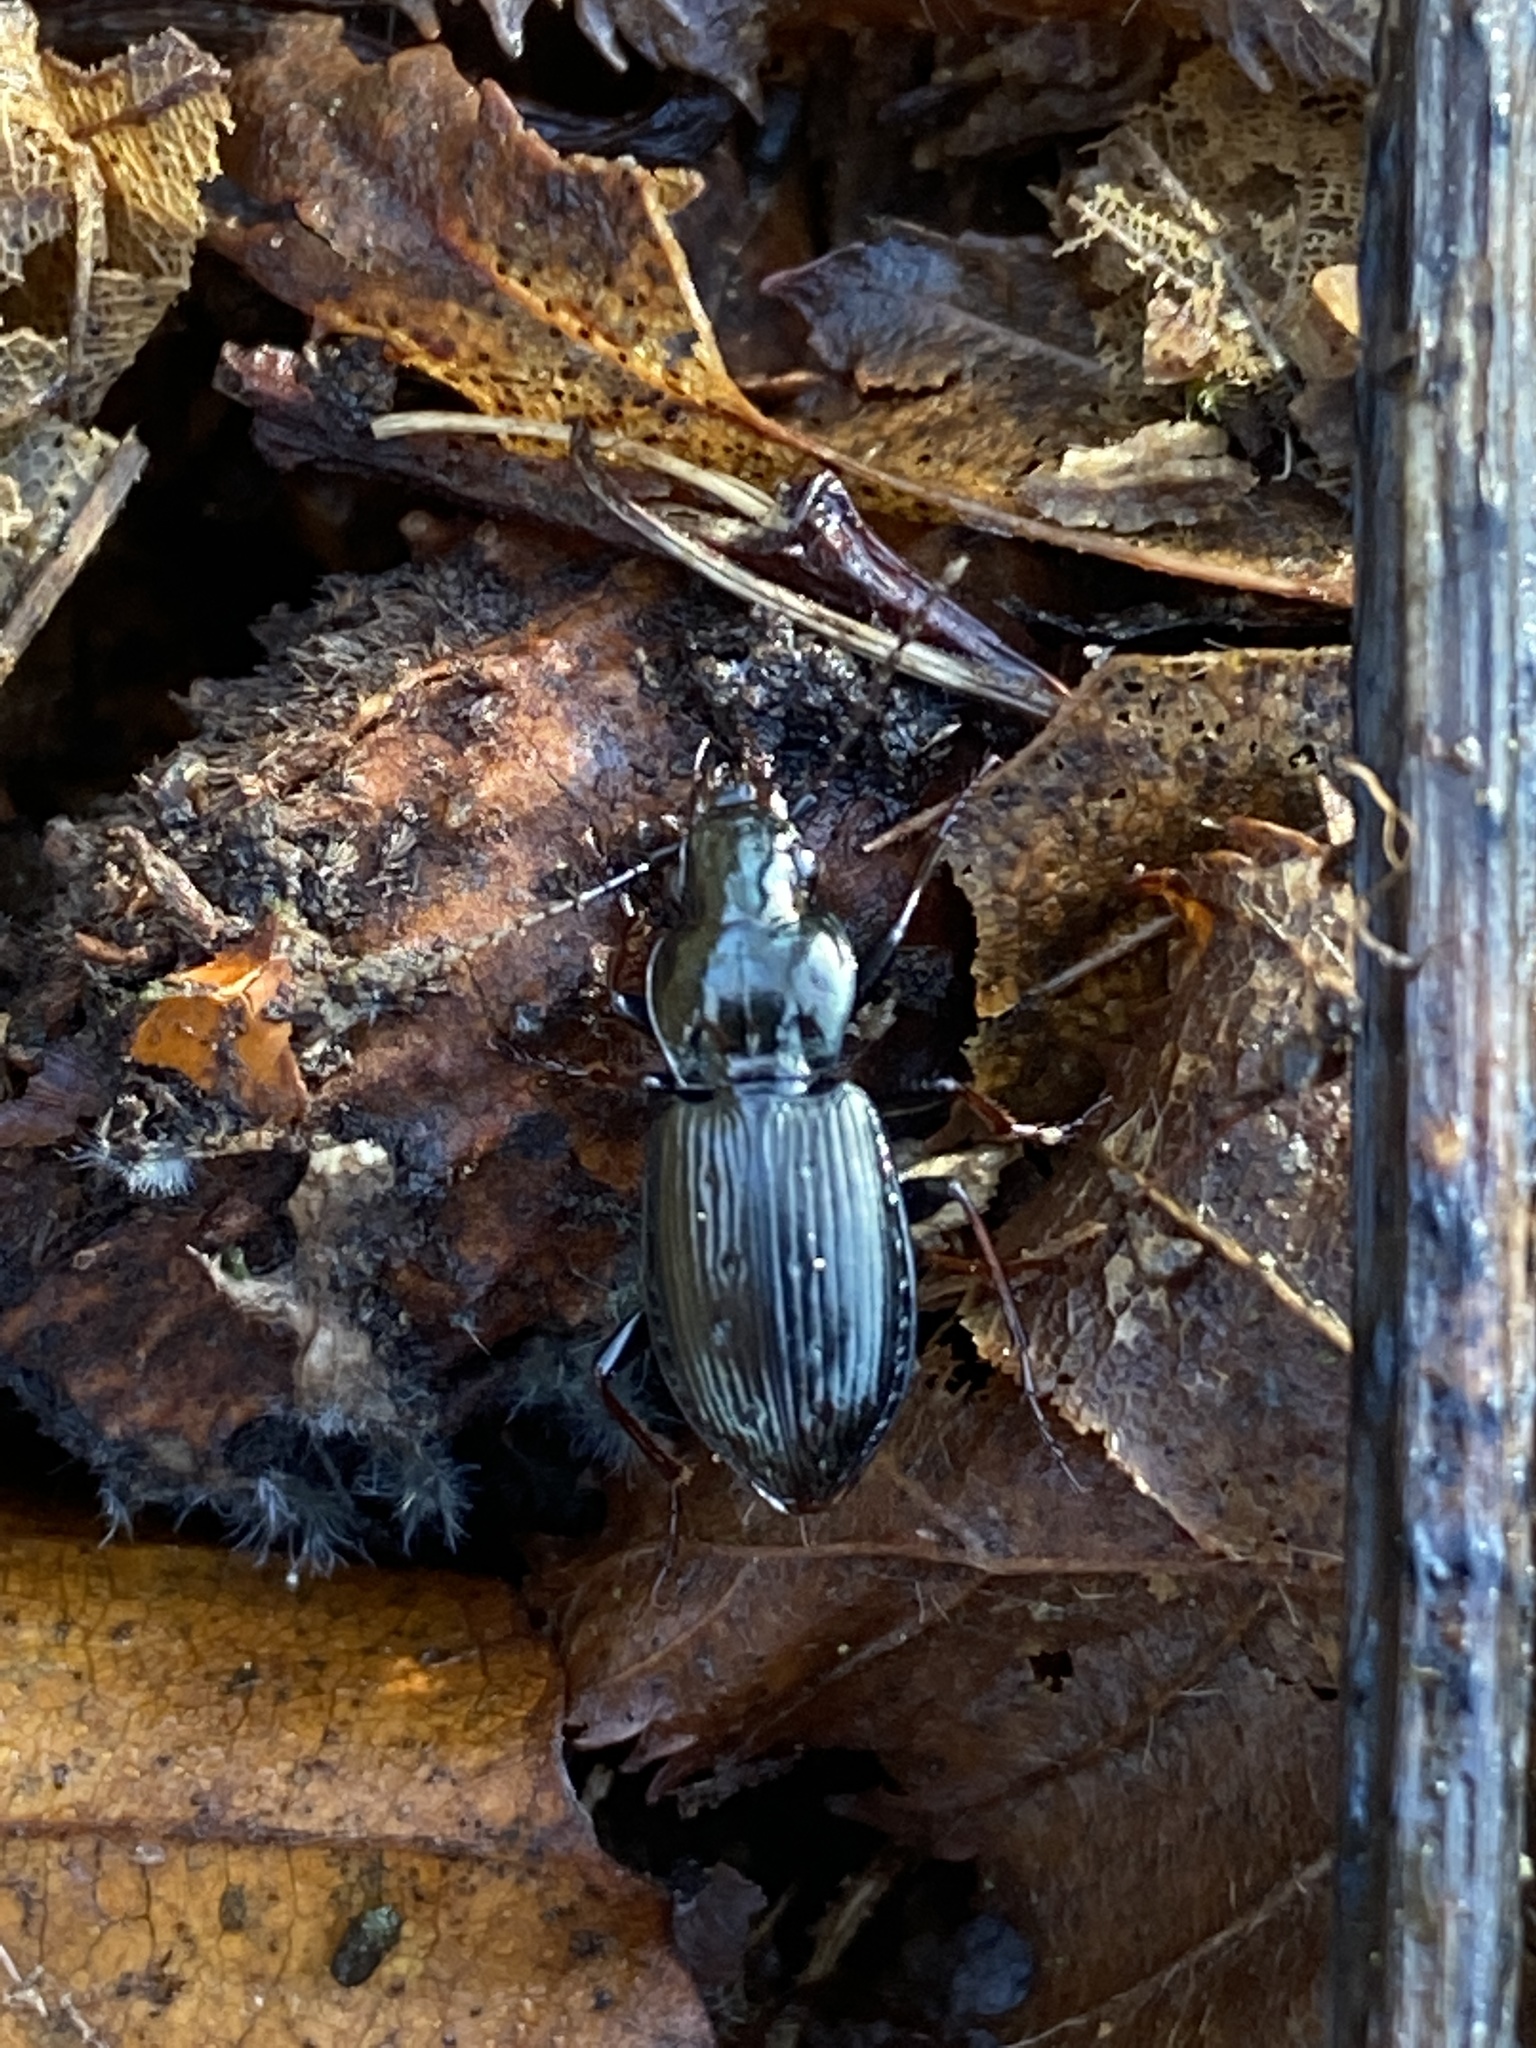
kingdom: Animalia
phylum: Arthropoda
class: Insecta
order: Coleoptera
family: Carabidae
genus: Pterostichus
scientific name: Pterostichus oblongopunctatus
